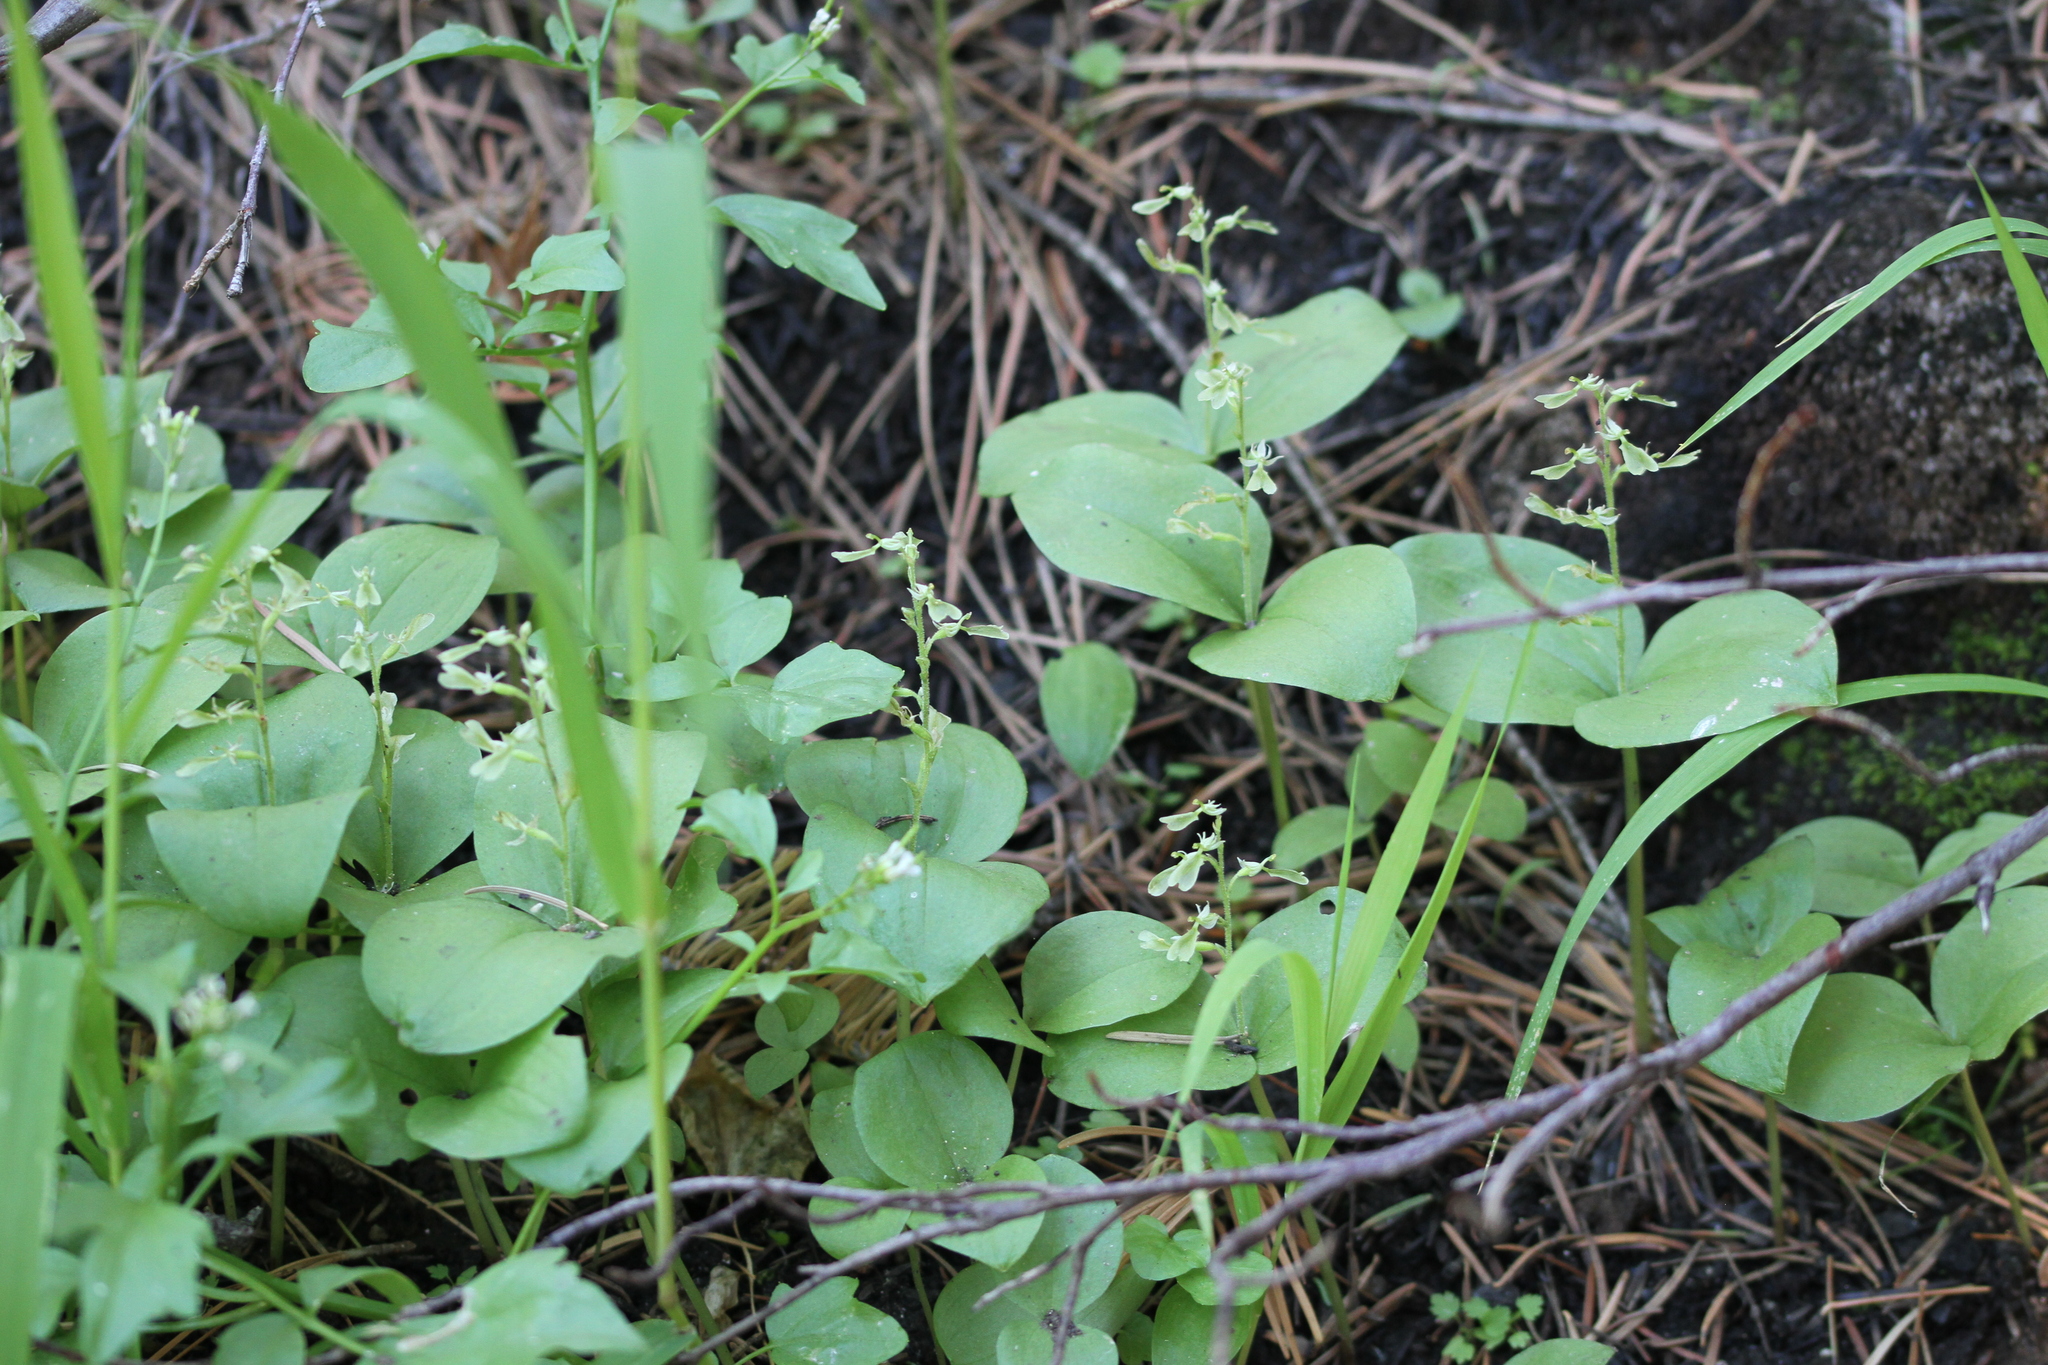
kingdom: Plantae
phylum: Tracheophyta
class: Liliopsida
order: Asparagales
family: Orchidaceae
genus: Neottia
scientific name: Neottia convallarioides
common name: Broadleaf twayblade
